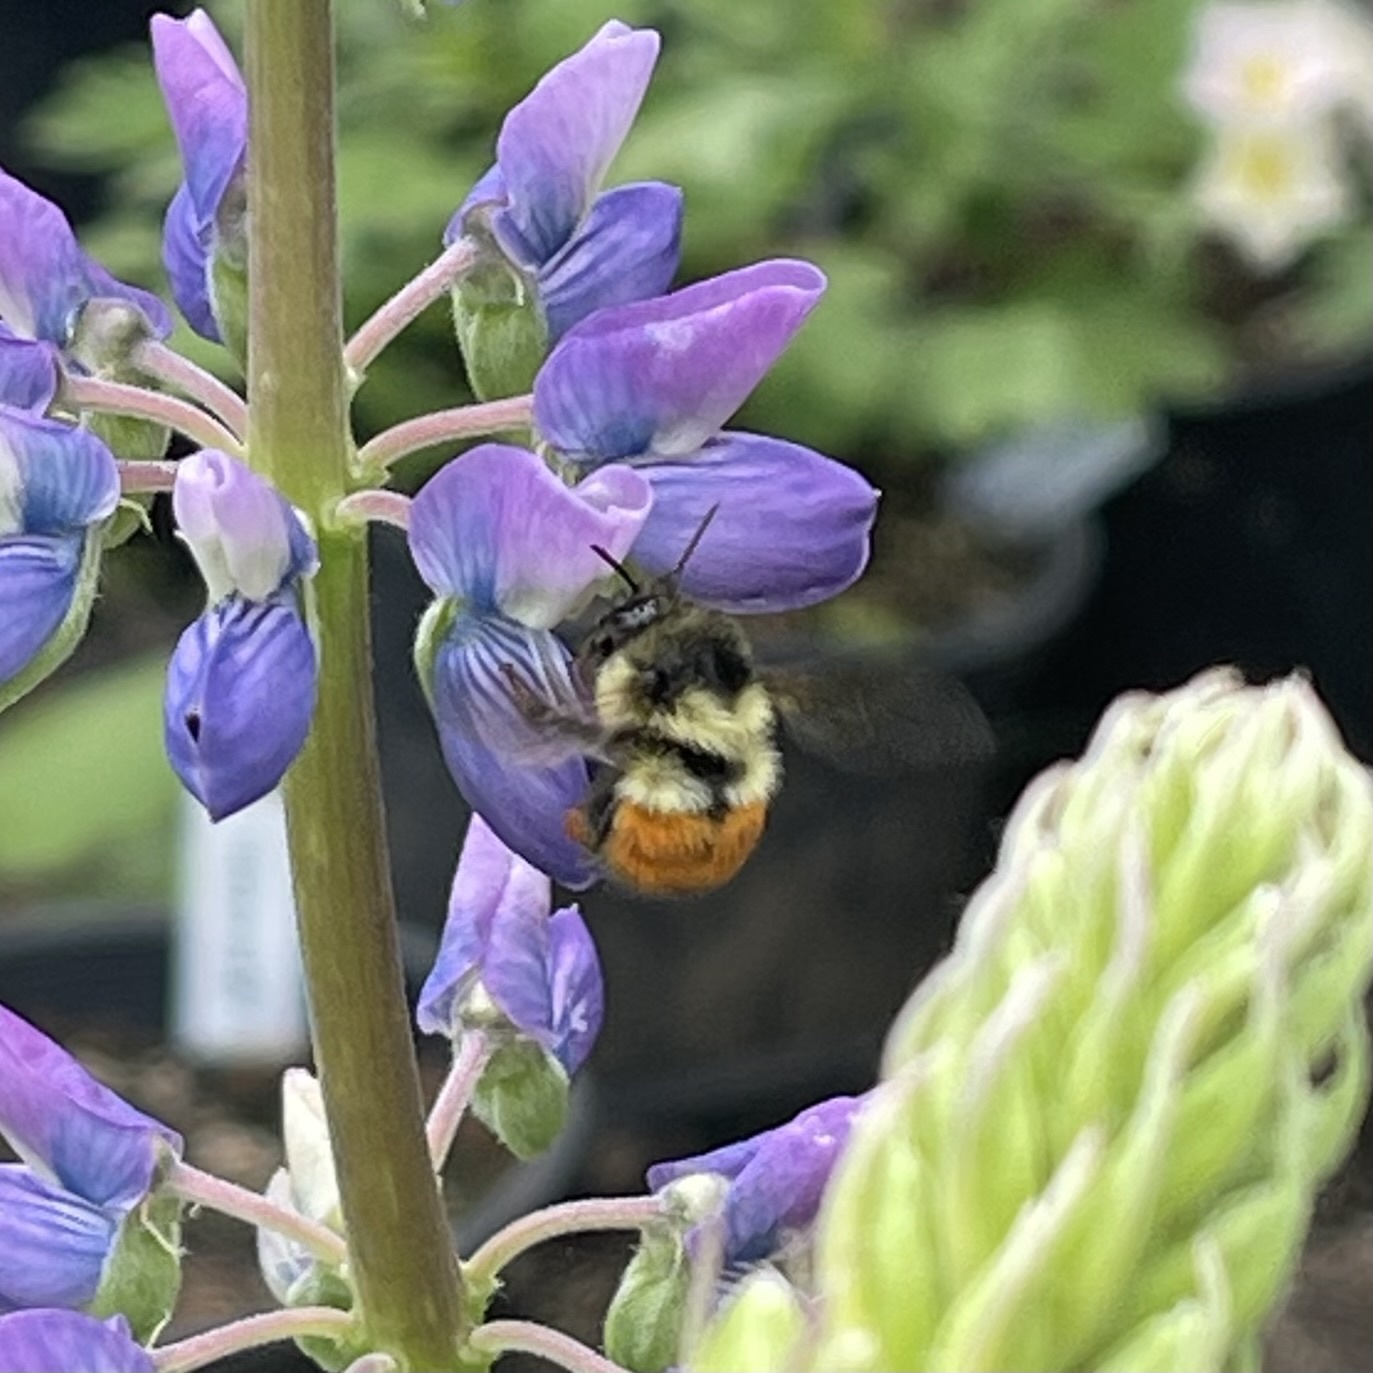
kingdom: Animalia
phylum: Arthropoda
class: Insecta
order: Hymenoptera
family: Apidae
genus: Bombus
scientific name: Bombus melanopygus
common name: Black tail bumble bee
